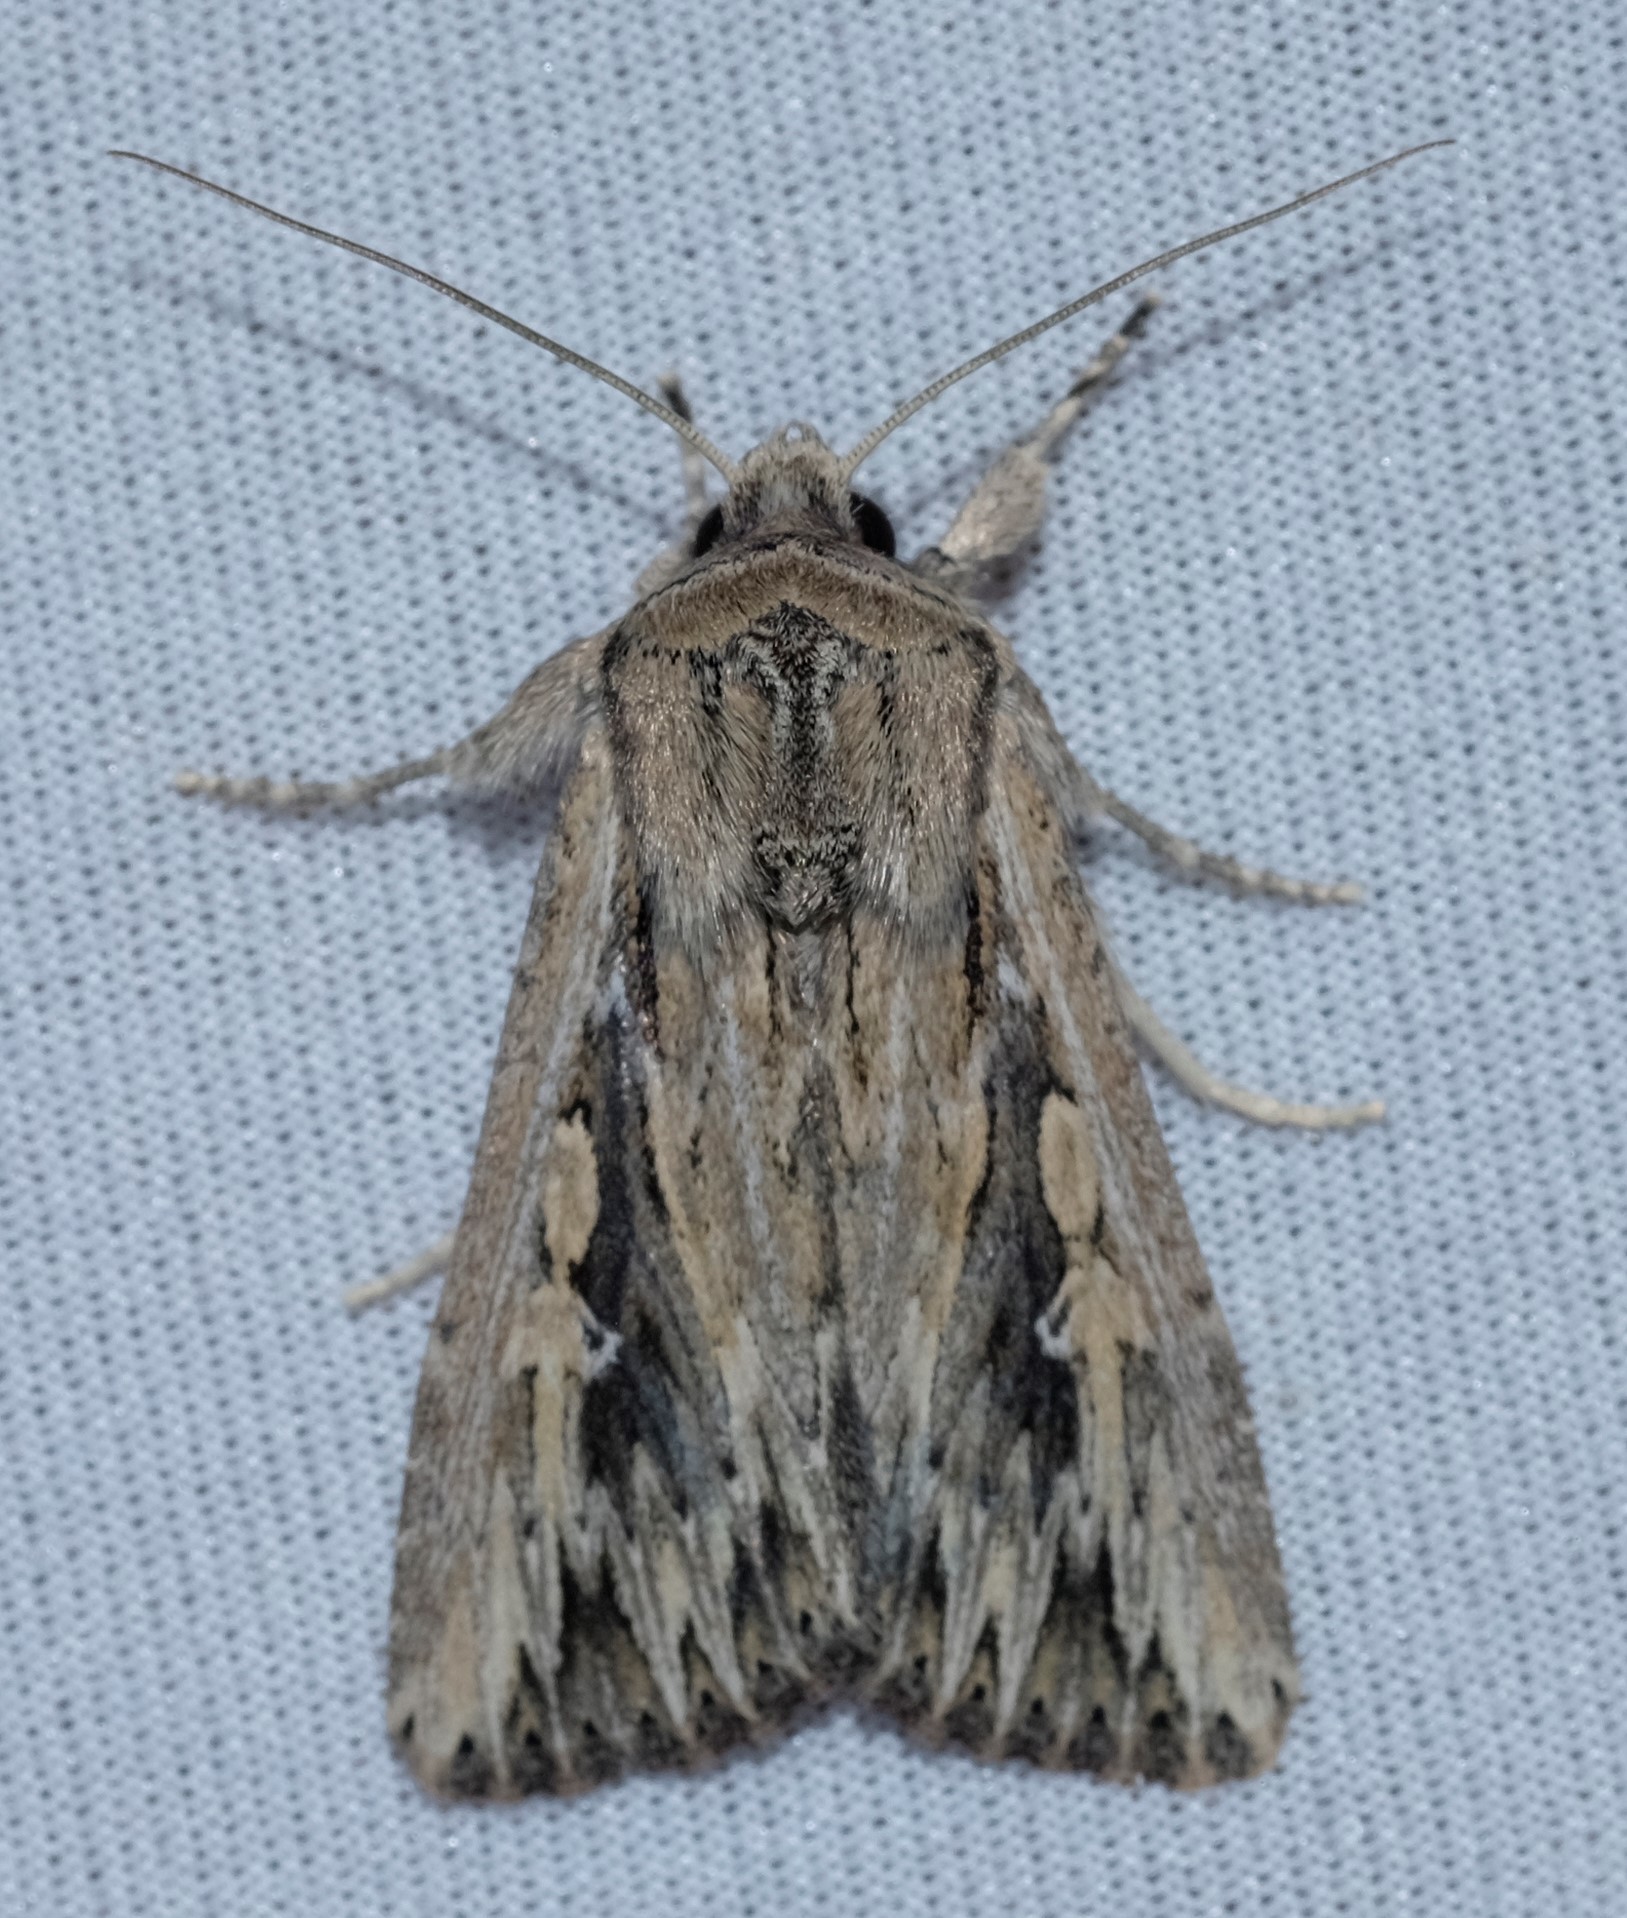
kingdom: Animalia
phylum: Arthropoda
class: Insecta
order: Lepidoptera
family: Noctuidae
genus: Persectania
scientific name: Persectania ewingii
